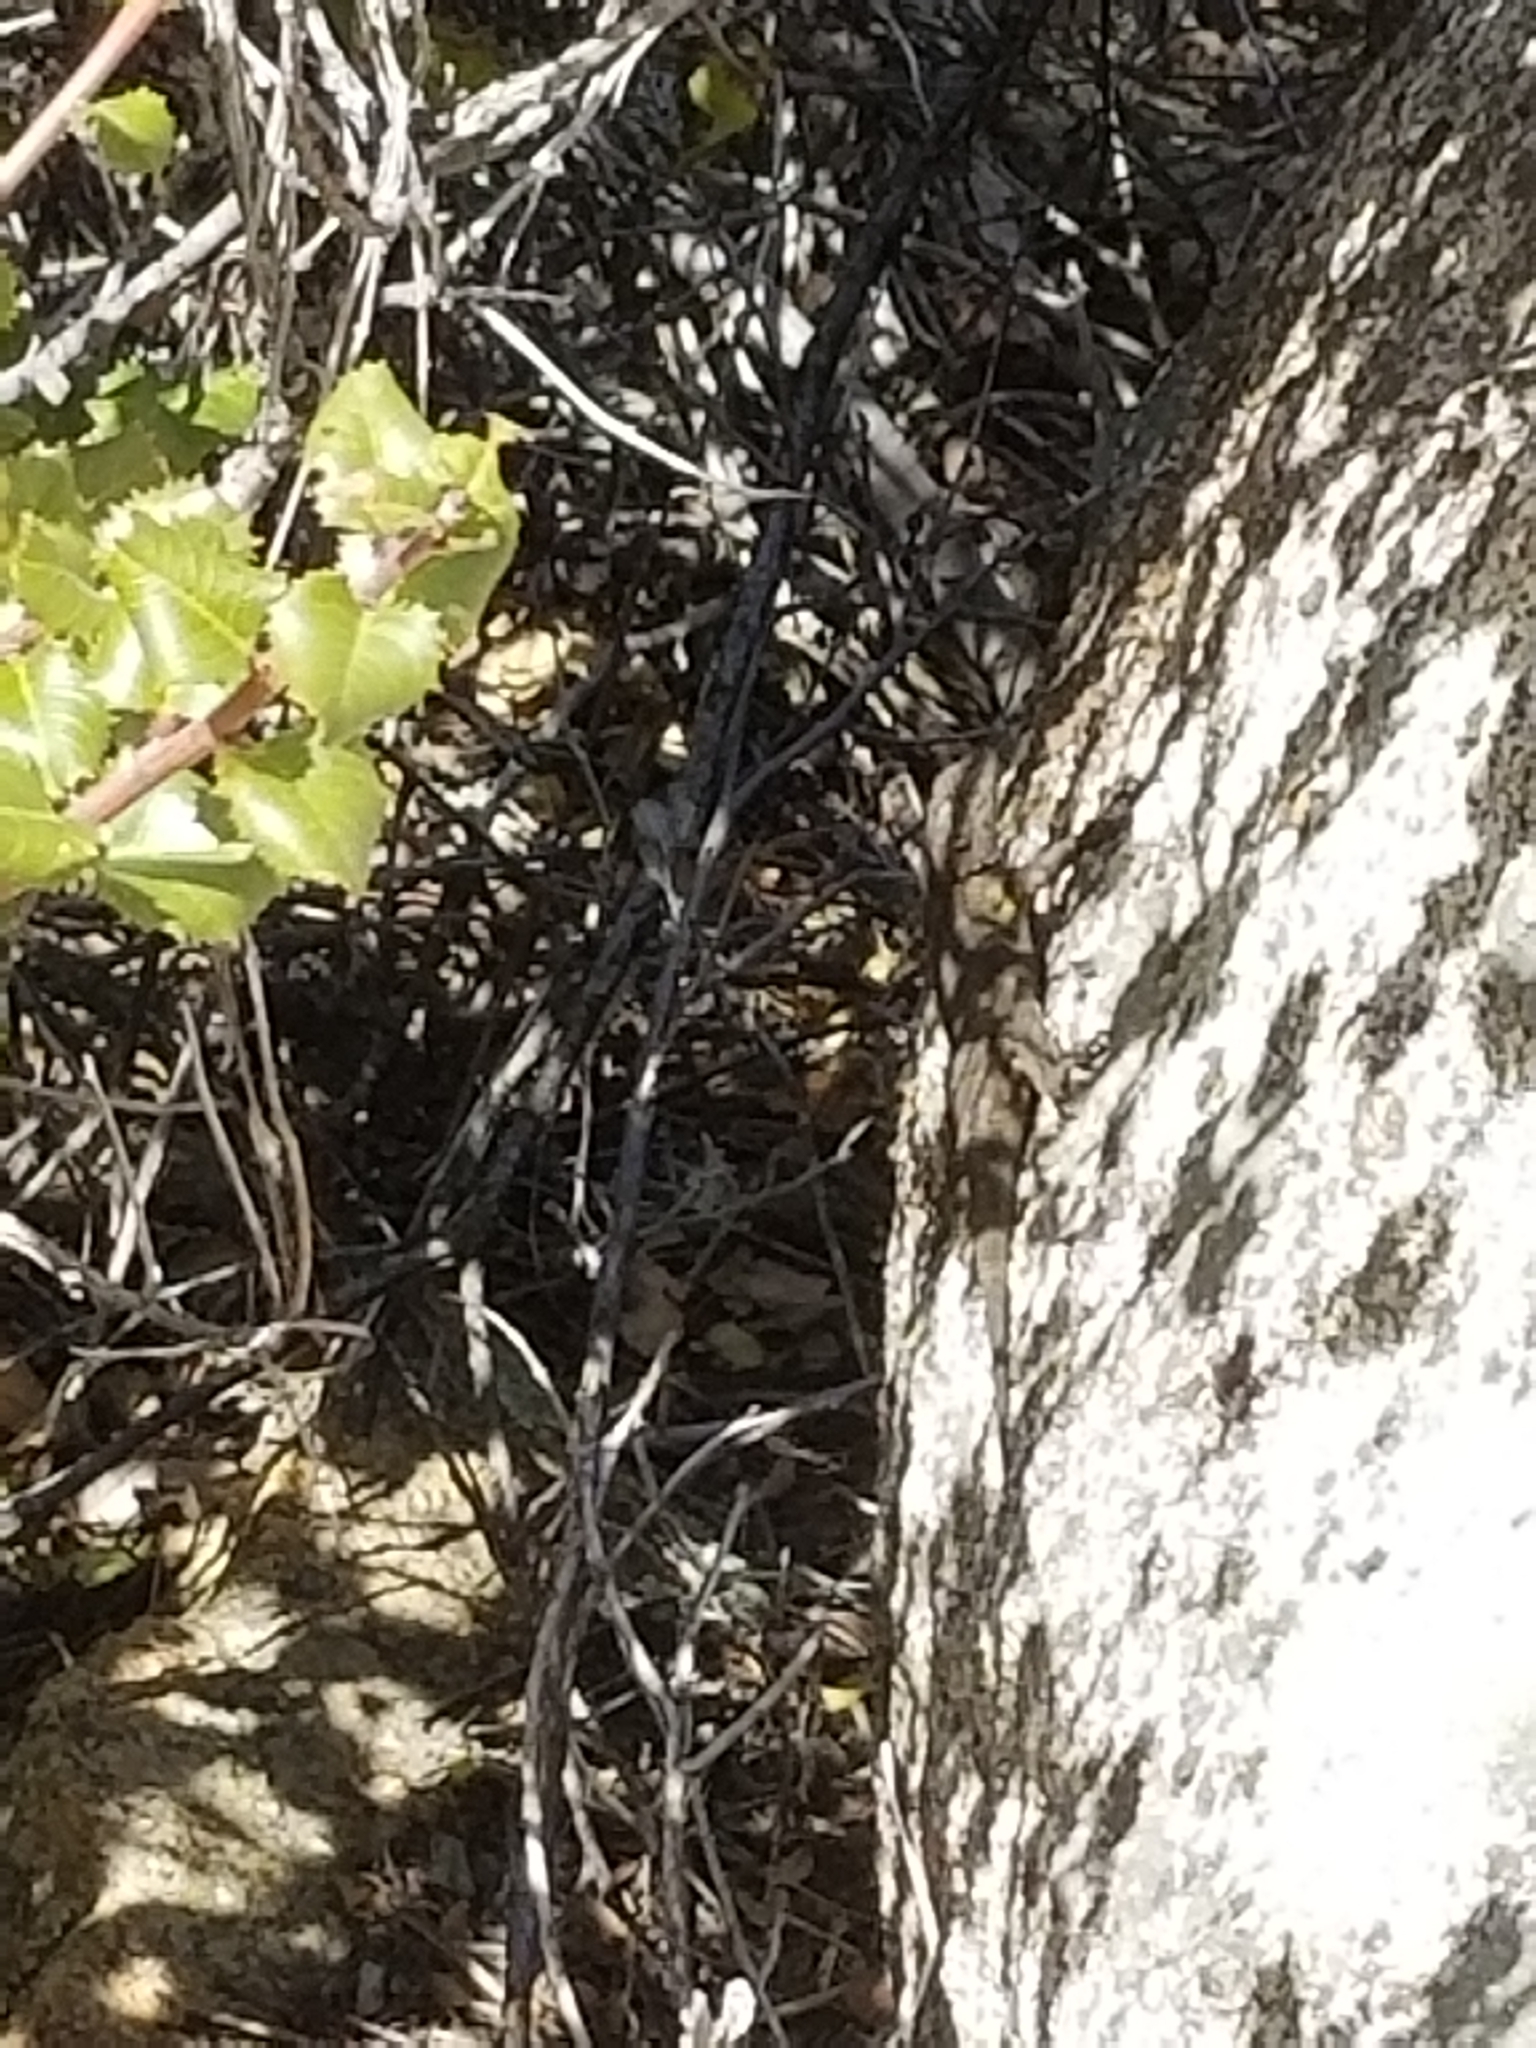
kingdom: Animalia
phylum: Chordata
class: Squamata
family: Phrynosomatidae
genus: Sceloporus
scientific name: Sceloporus occidentalis
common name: Western fence lizard
